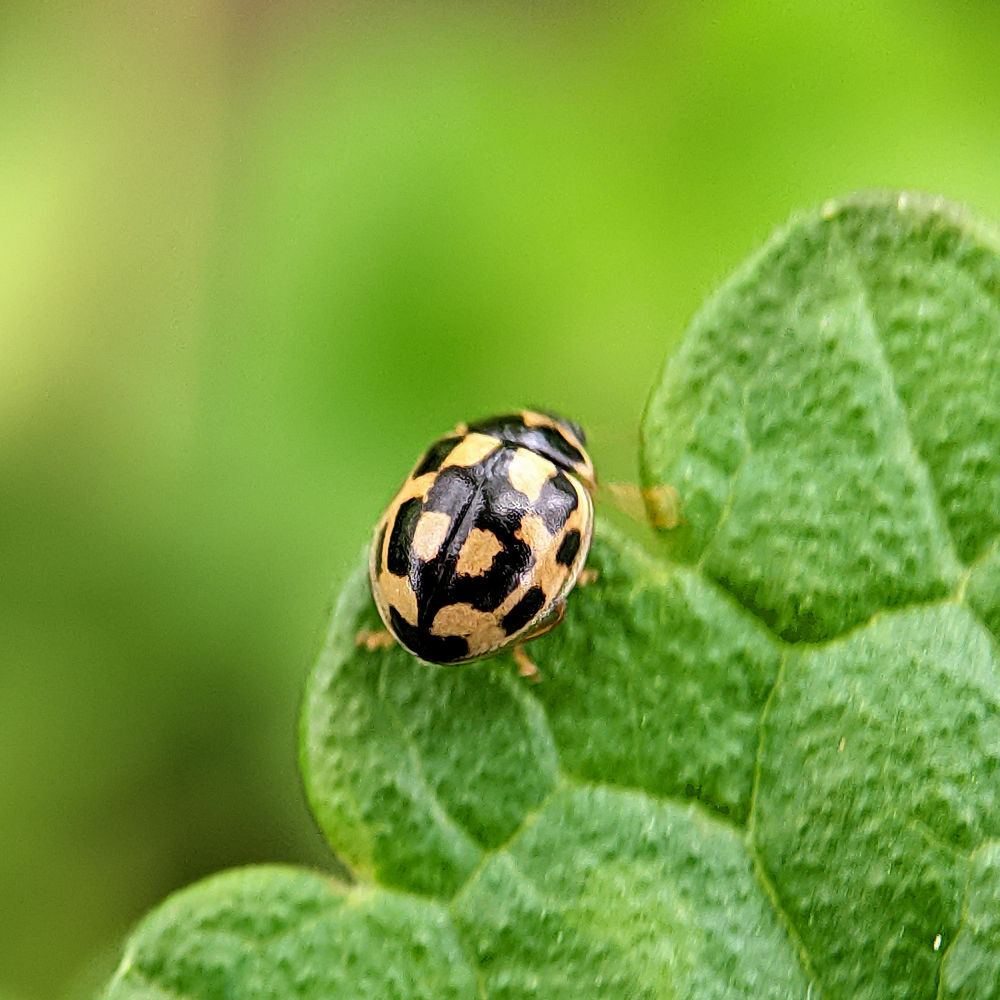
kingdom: Animalia
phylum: Arthropoda
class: Insecta
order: Coleoptera
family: Coccinellidae
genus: Propylaea
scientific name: Propylaea quatuordecimpunctata
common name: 14-spotted ladybird beetle
